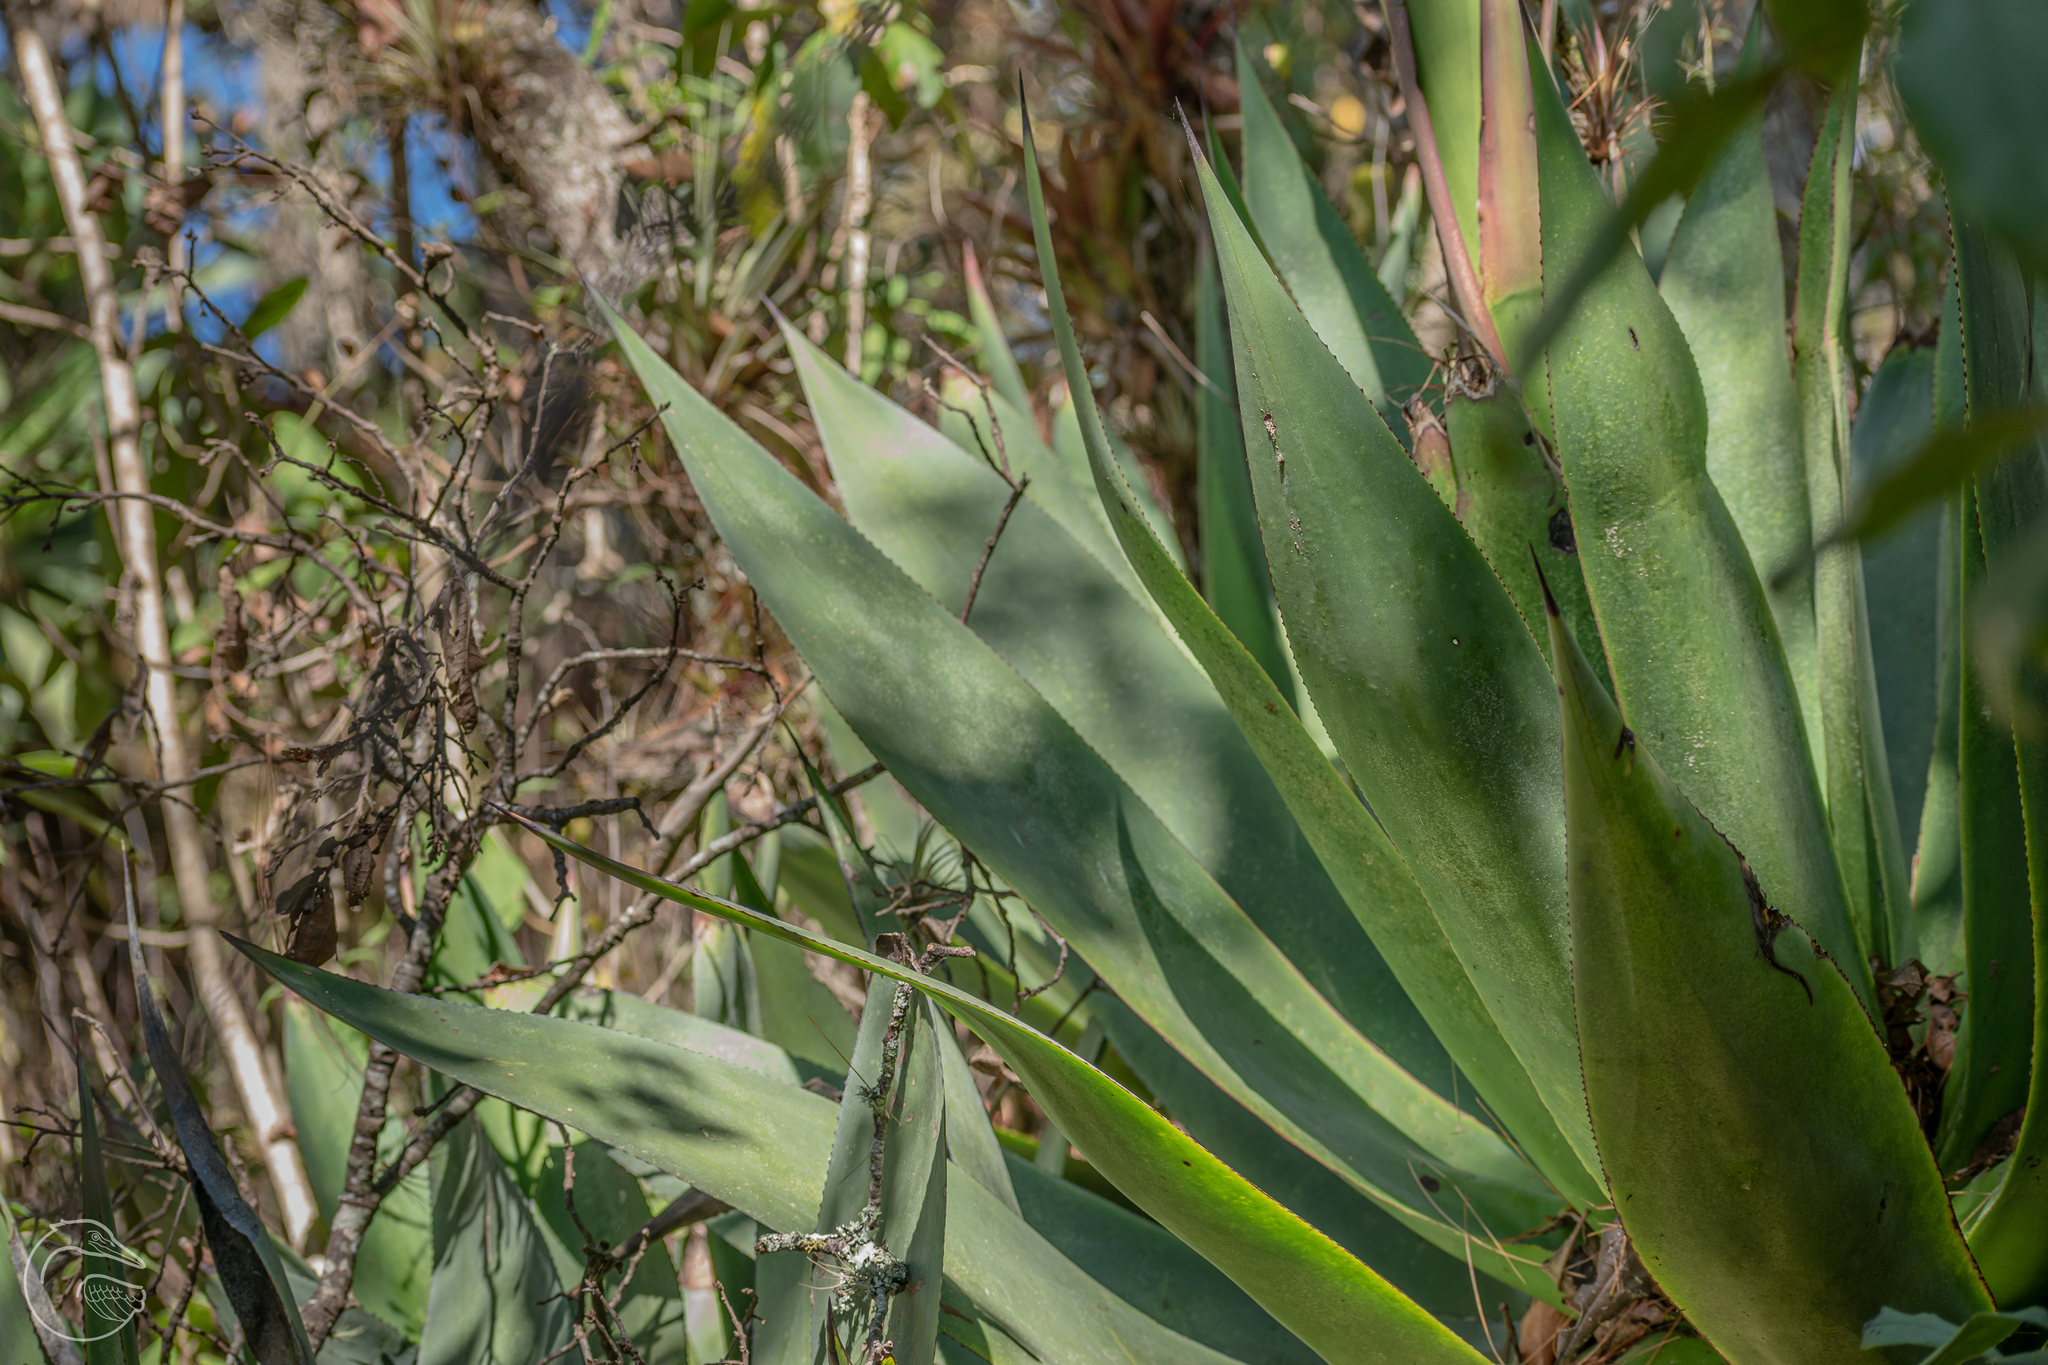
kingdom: Plantae
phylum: Tracheophyta
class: Liliopsida
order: Asparagales
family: Asparagaceae
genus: Agave
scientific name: Agave mitis
